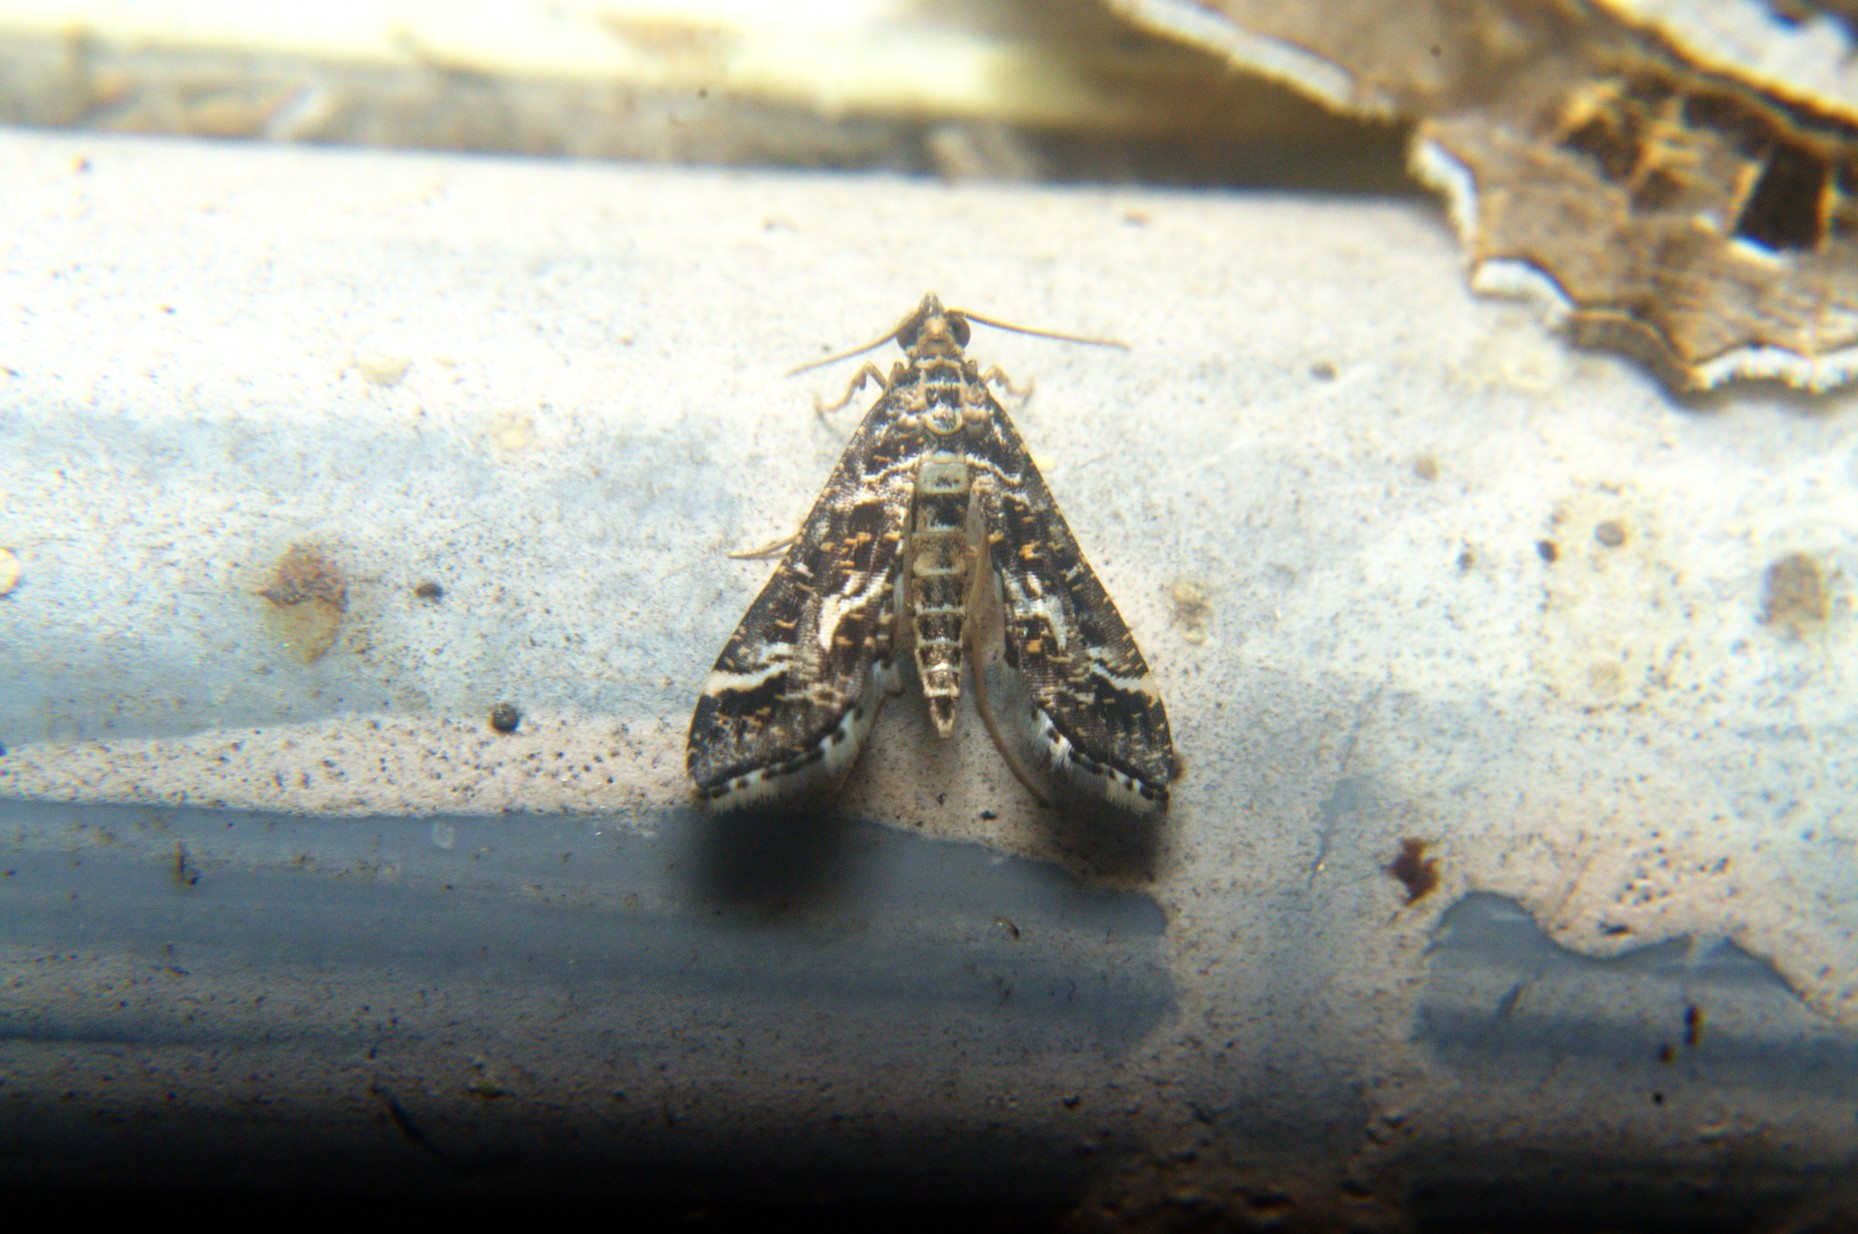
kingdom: Animalia
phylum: Arthropoda
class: Insecta
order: Lepidoptera
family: Crambidae
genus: Diasemiopsis
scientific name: Diasemiopsis ramburialis
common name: Vagrant china-mark
